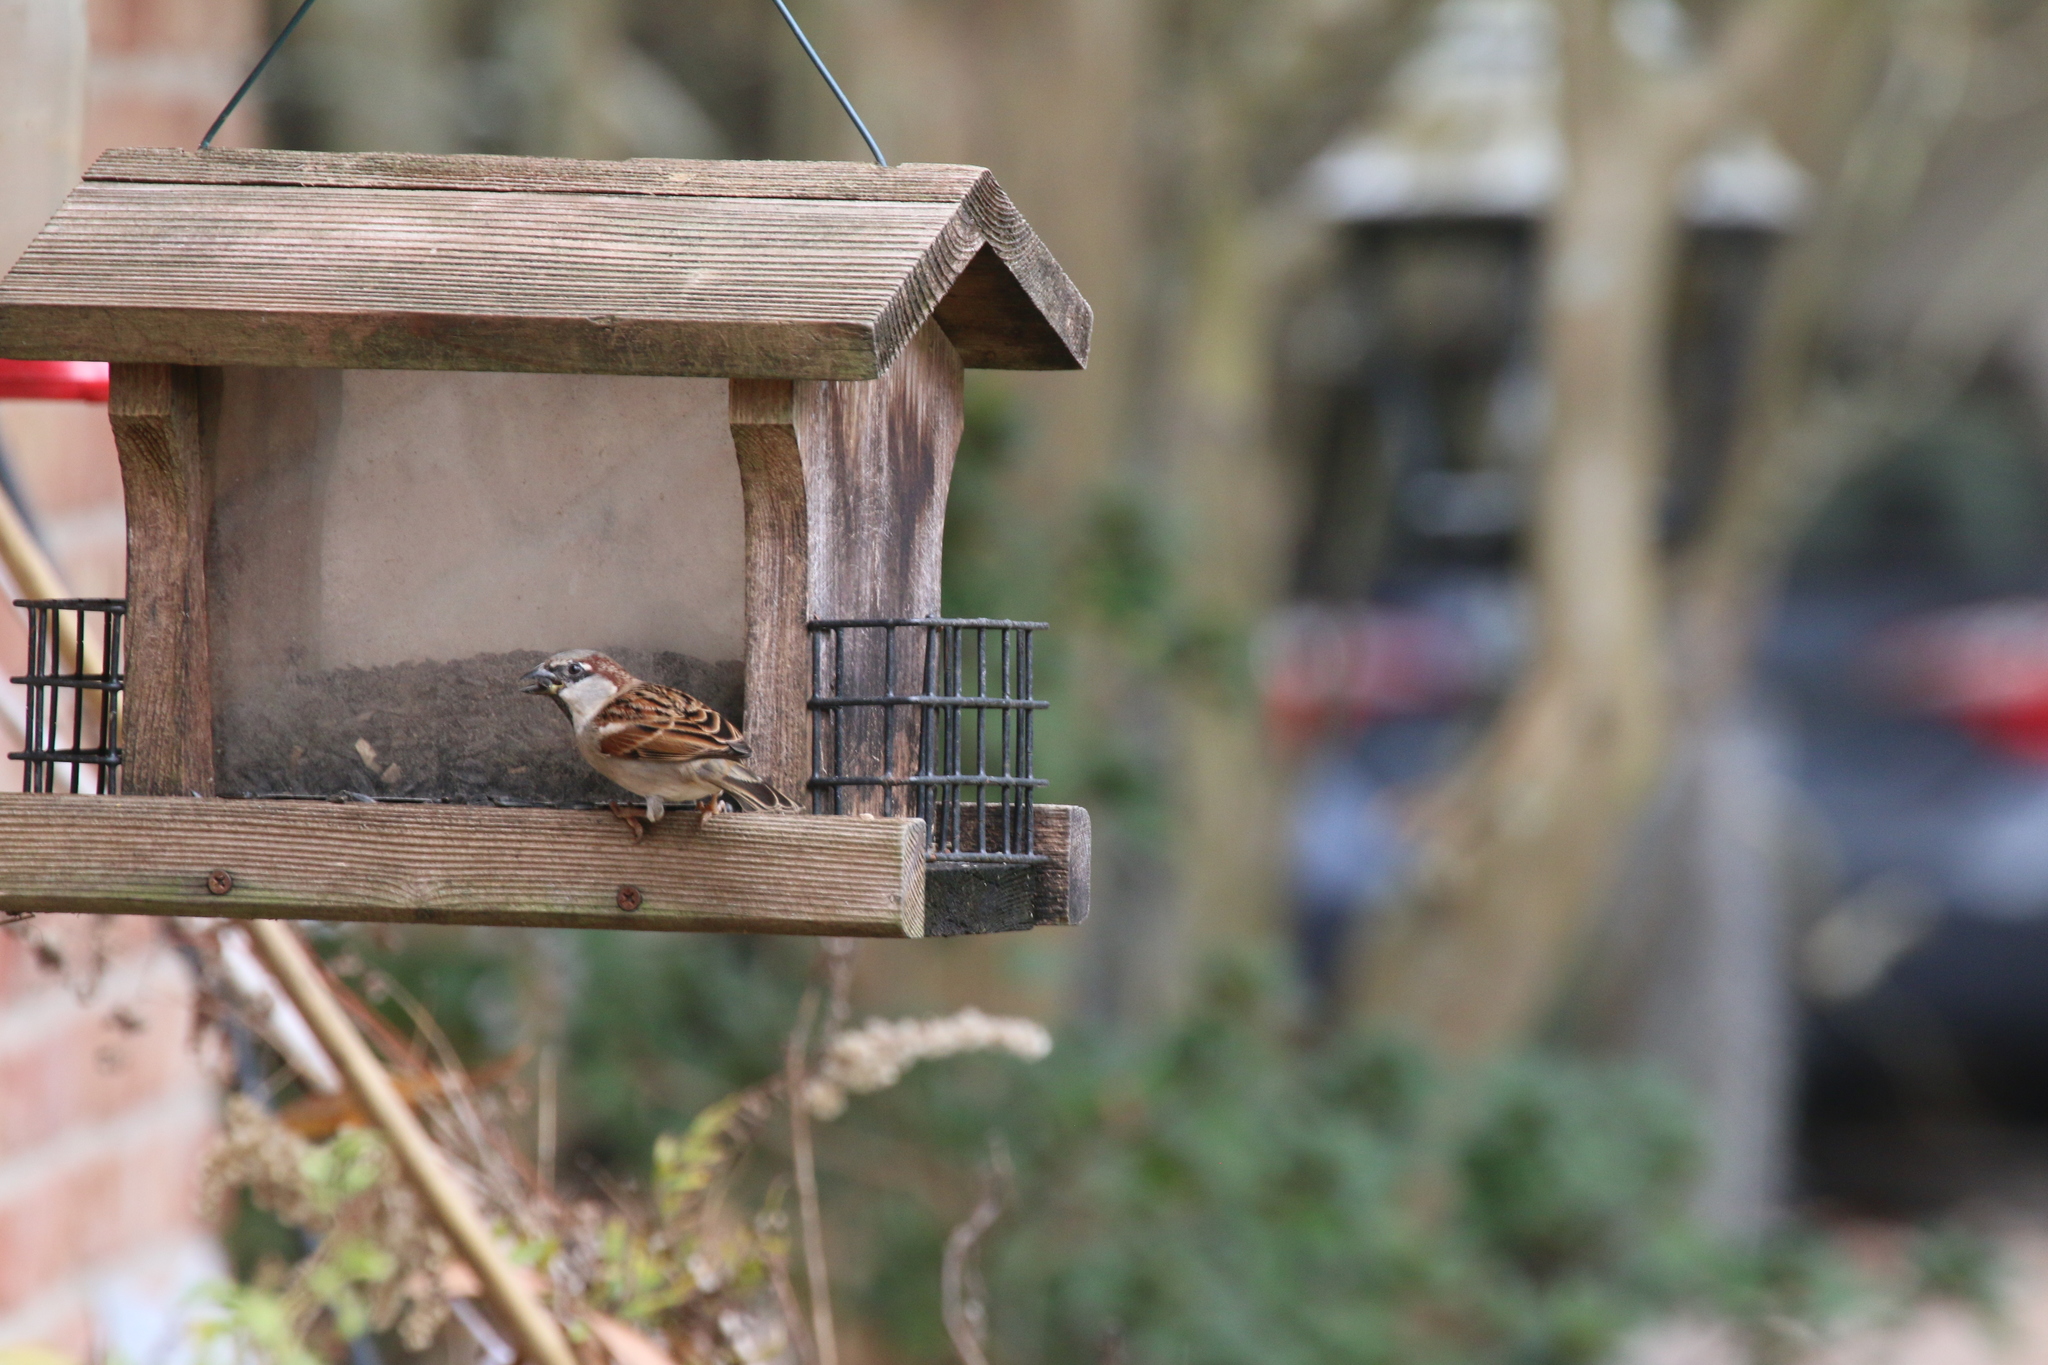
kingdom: Animalia
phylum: Chordata
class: Aves
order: Passeriformes
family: Passeridae
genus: Passer
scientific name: Passer domesticus
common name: House sparrow
